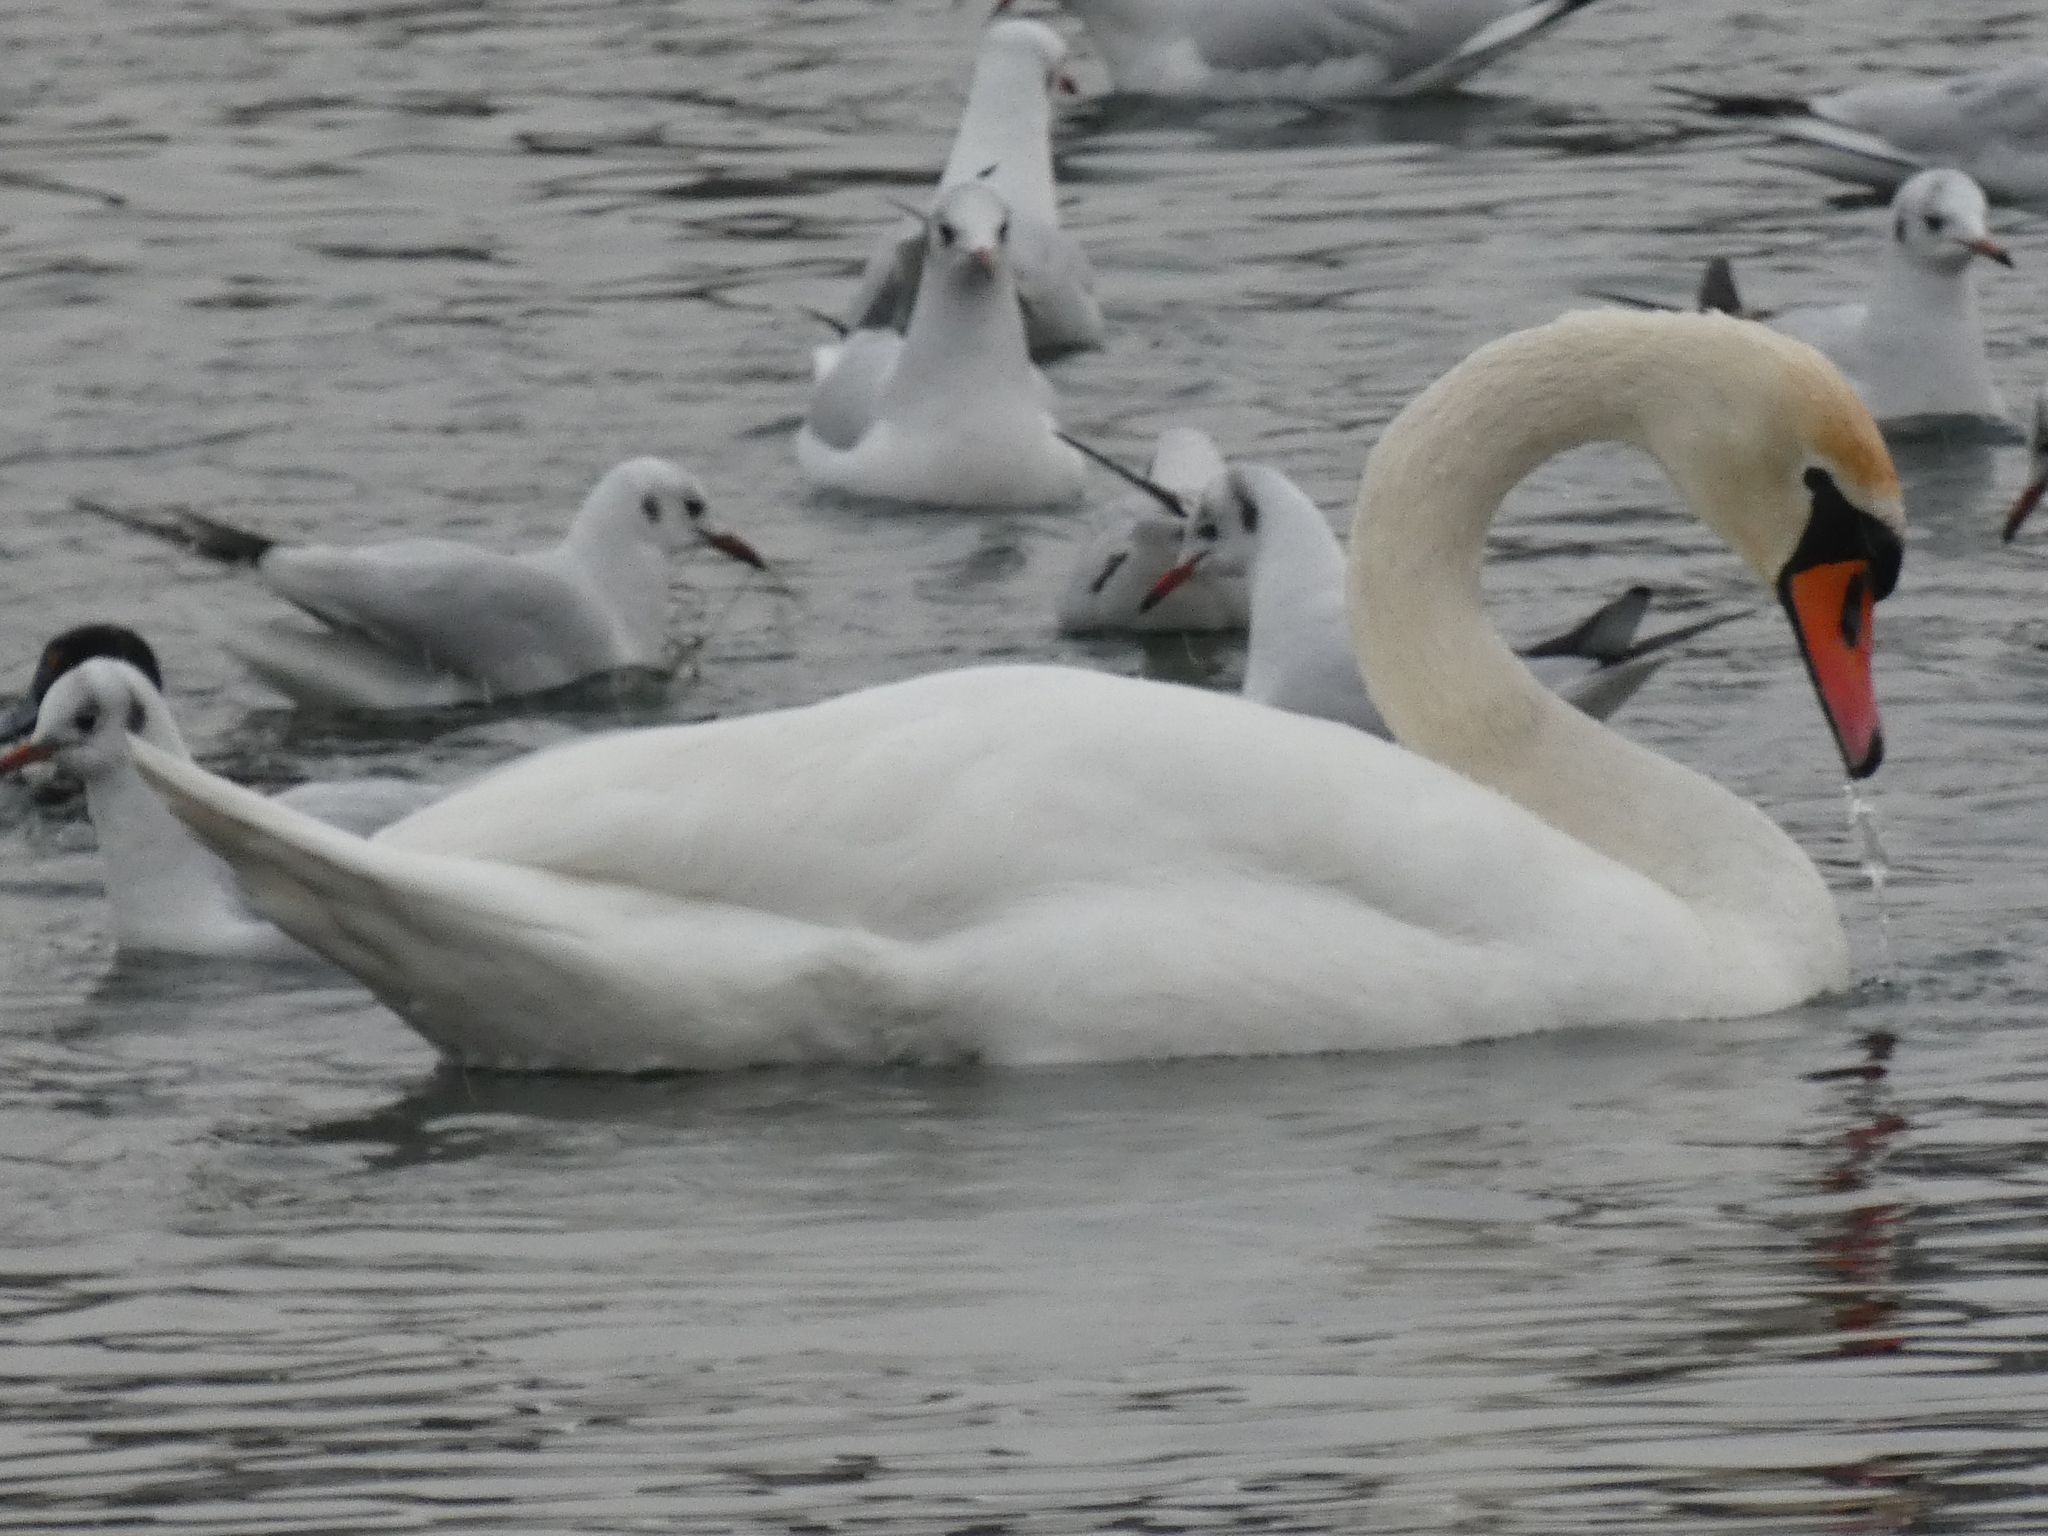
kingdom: Animalia
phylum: Chordata
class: Aves
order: Anseriformes
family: Anatidae
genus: Cygnus
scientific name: Cygnus olor
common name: Mute swan
